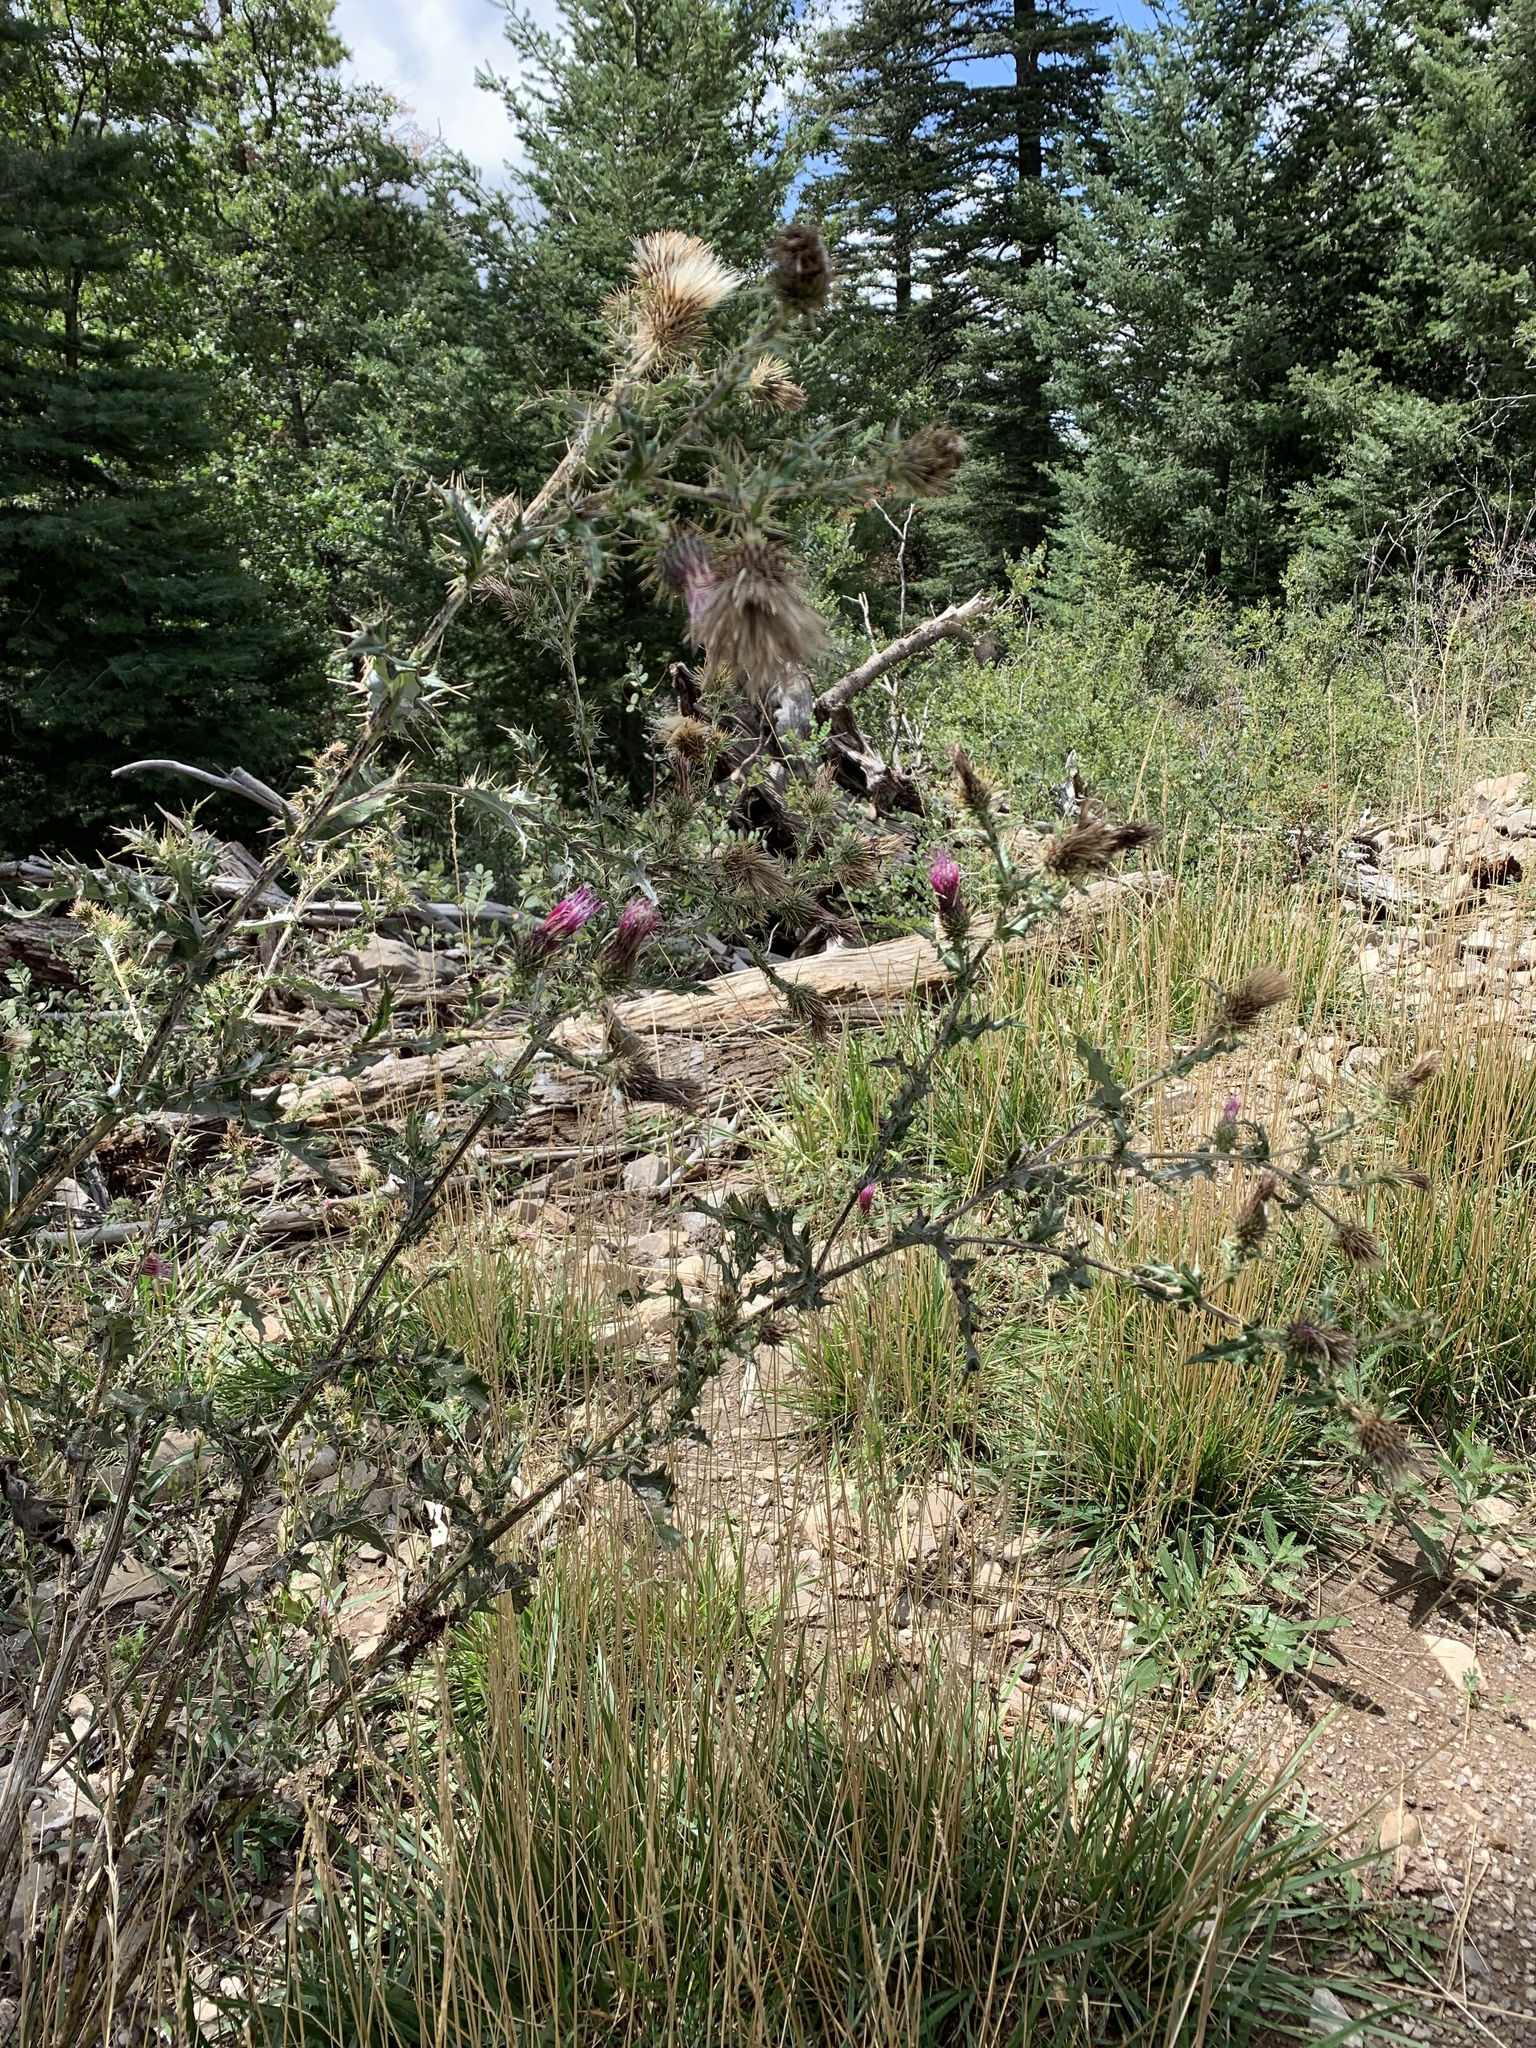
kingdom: Plantae
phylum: Tracheophyta
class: Magnoliopsida
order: Asterales
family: Asteraceae
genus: Cirsium
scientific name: Cirsium arizonicum
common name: Arizona thistle
